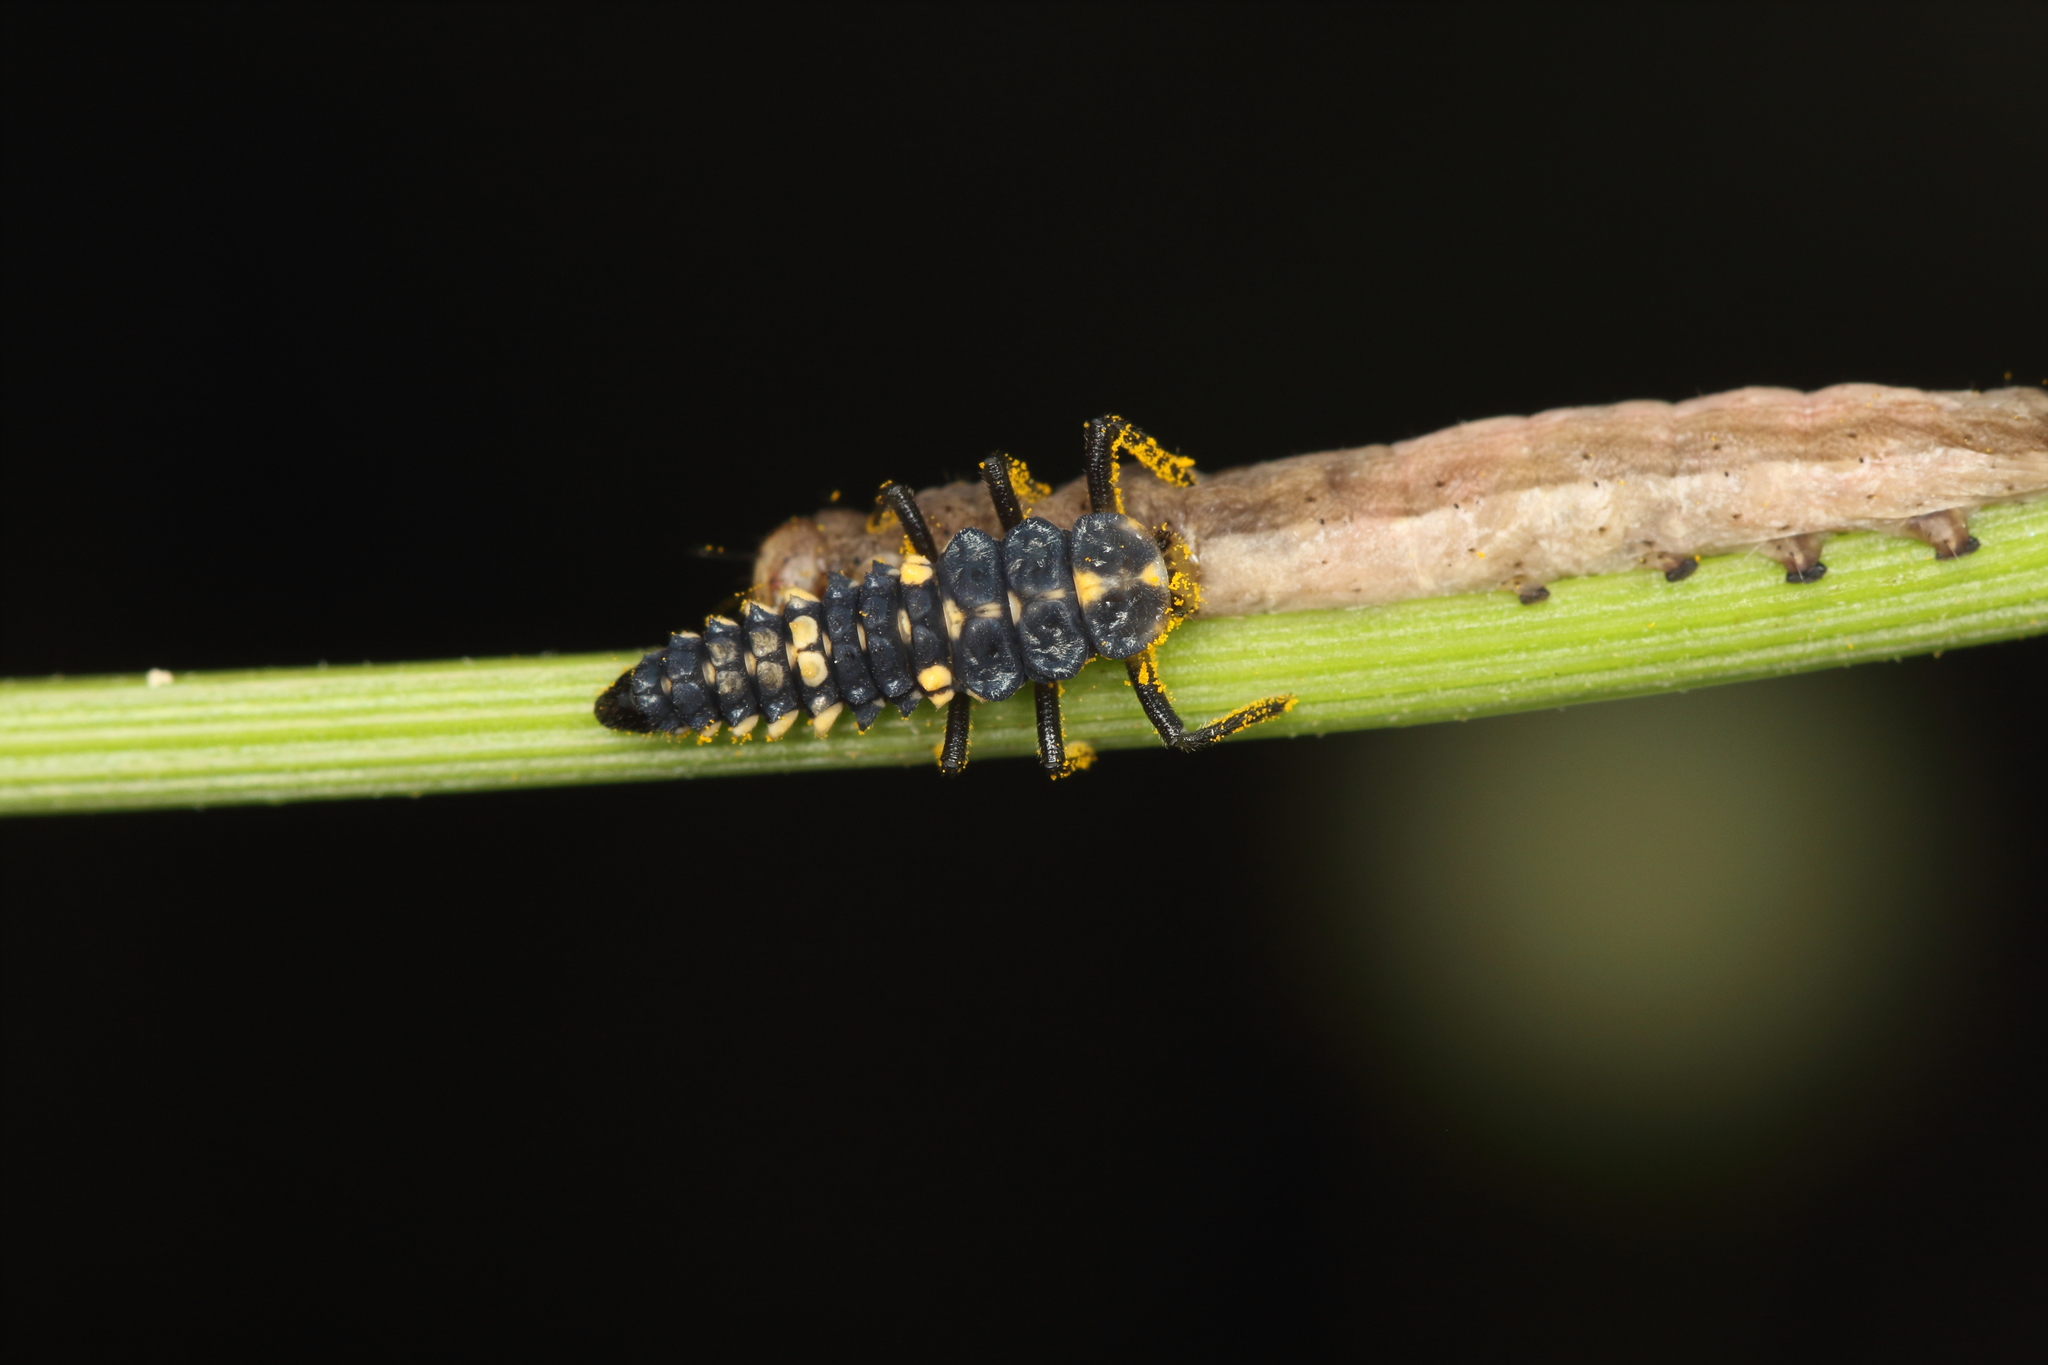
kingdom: Animalia
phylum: Arthropoda
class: Insecta
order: Coleoptera
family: Coccinellidae
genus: Cleobora
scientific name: Cleobora
